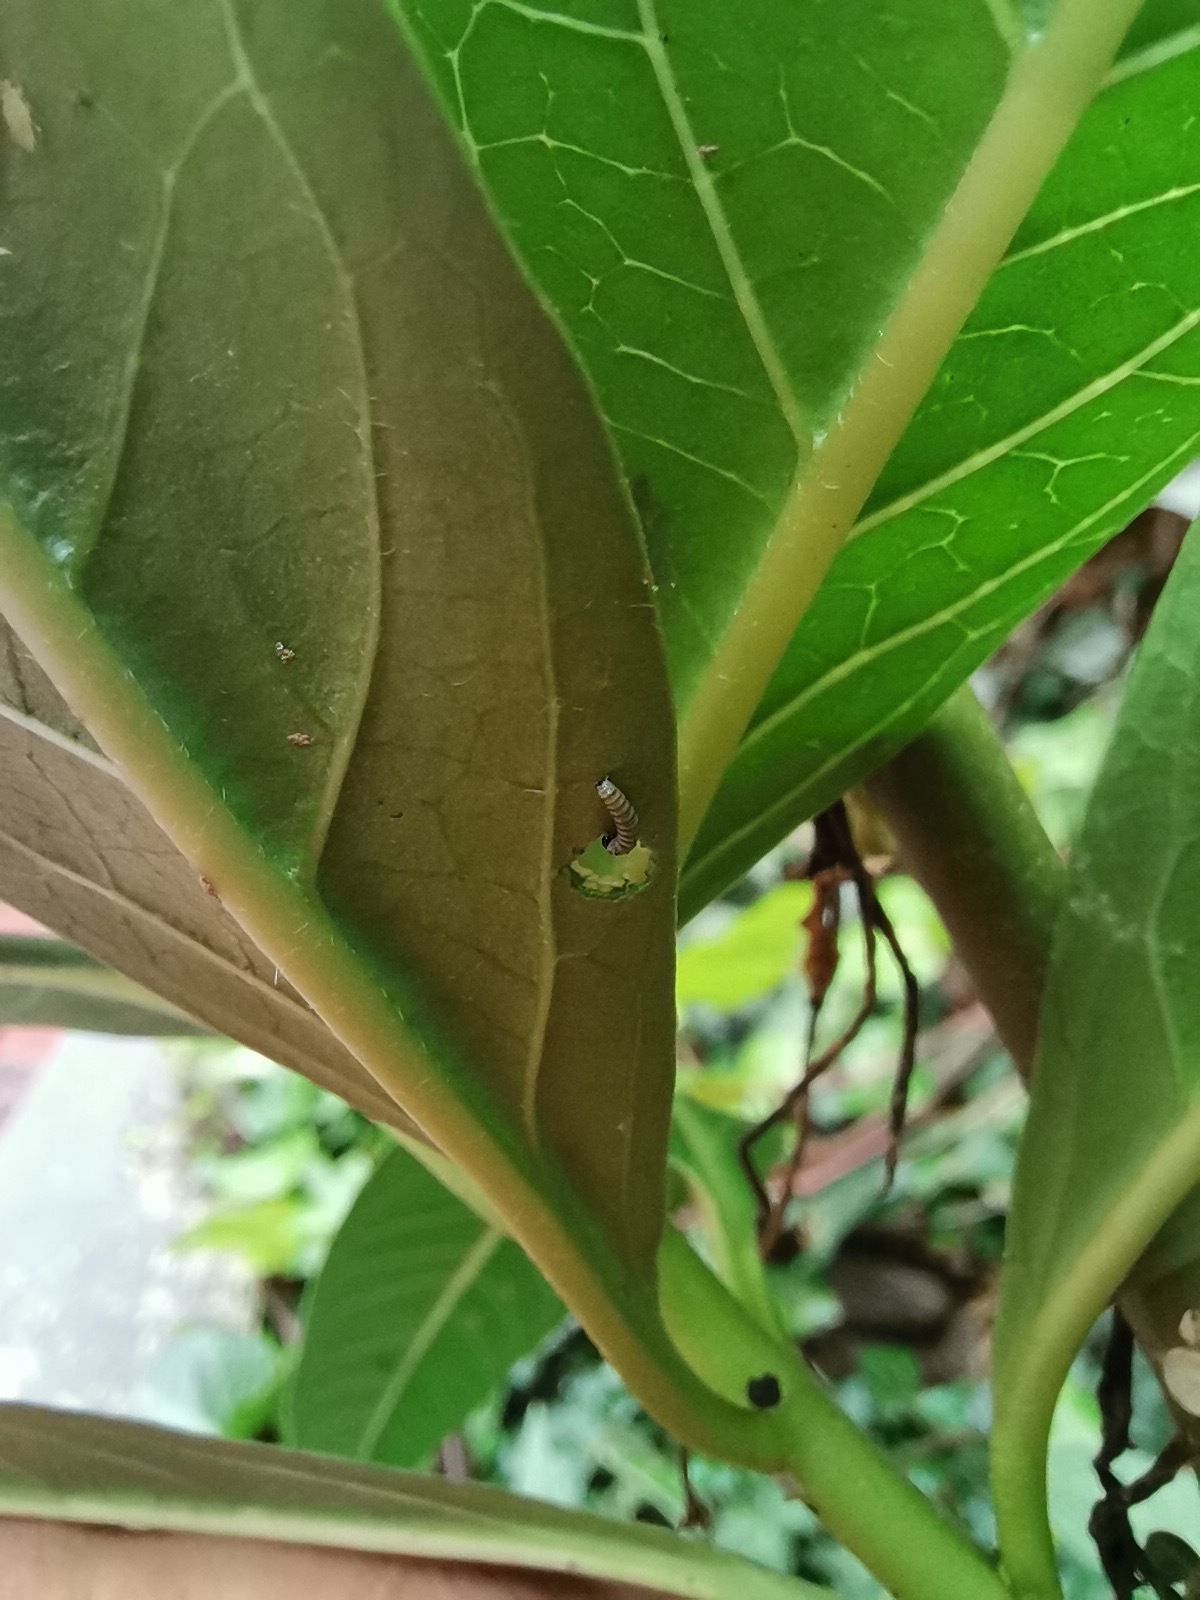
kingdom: Animalia
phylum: Arthropoda
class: Insecta
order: Lepidoptera
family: Nymphalidae
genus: Danaus
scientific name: Danaus plexippus
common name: Monarch
